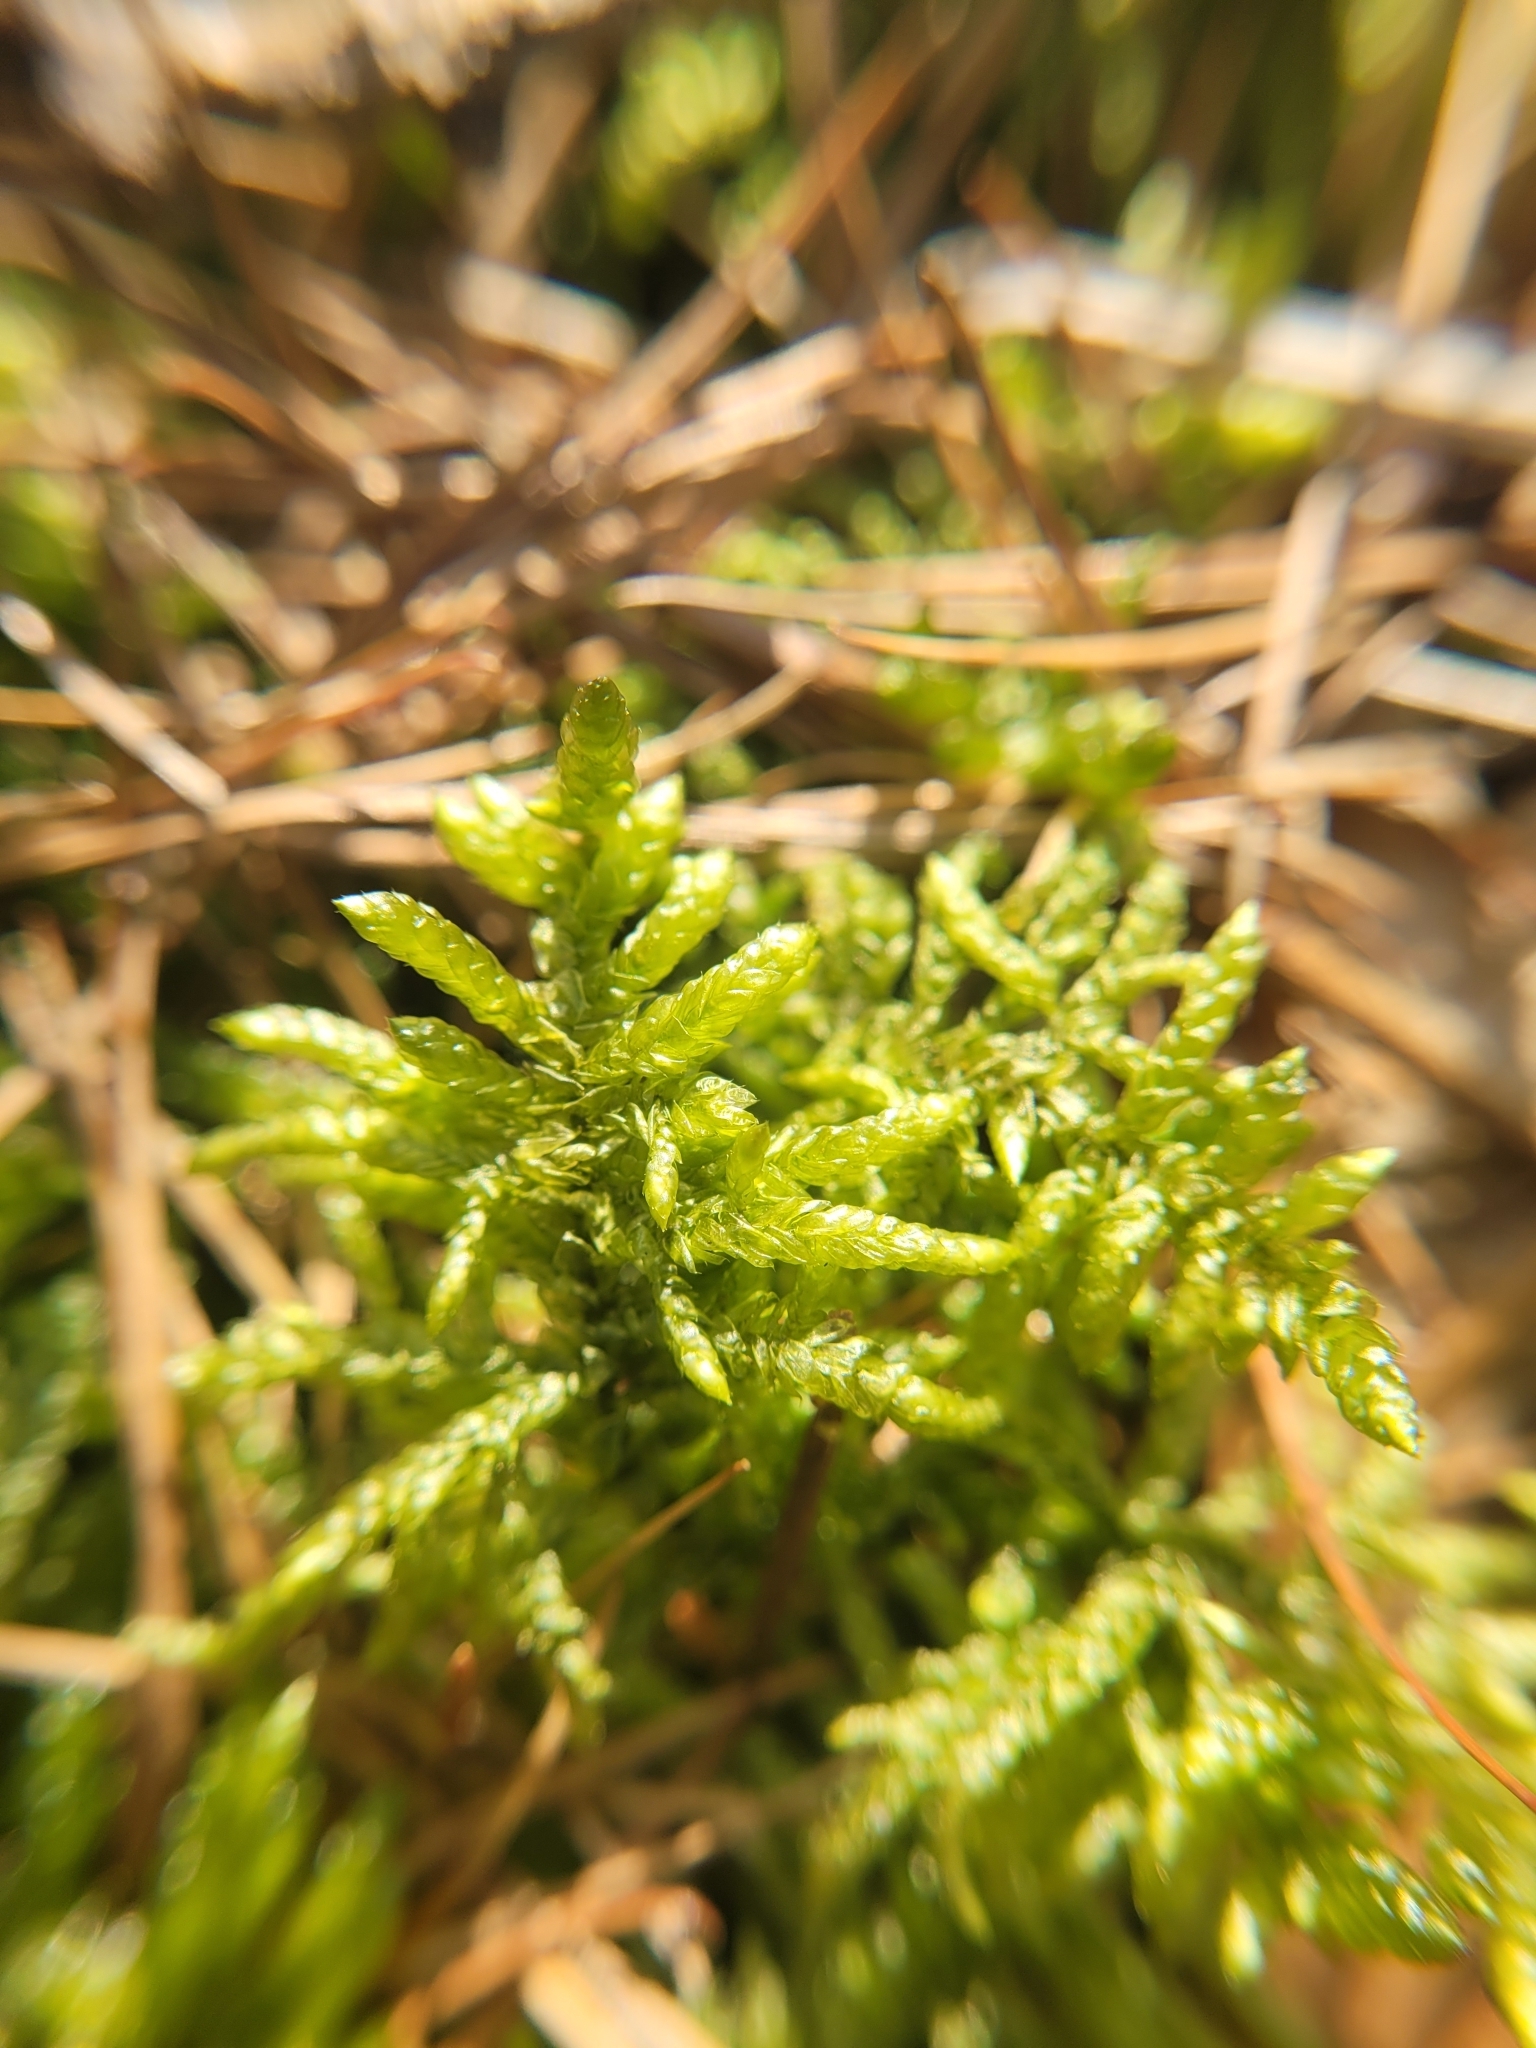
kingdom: Plantae
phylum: Bryophyta
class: Bryopsida
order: Hypnales
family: Brachytheciaceae
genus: Pseudoscleropodium
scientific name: Pseudoscleropodium purum
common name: Neat feather-moss
